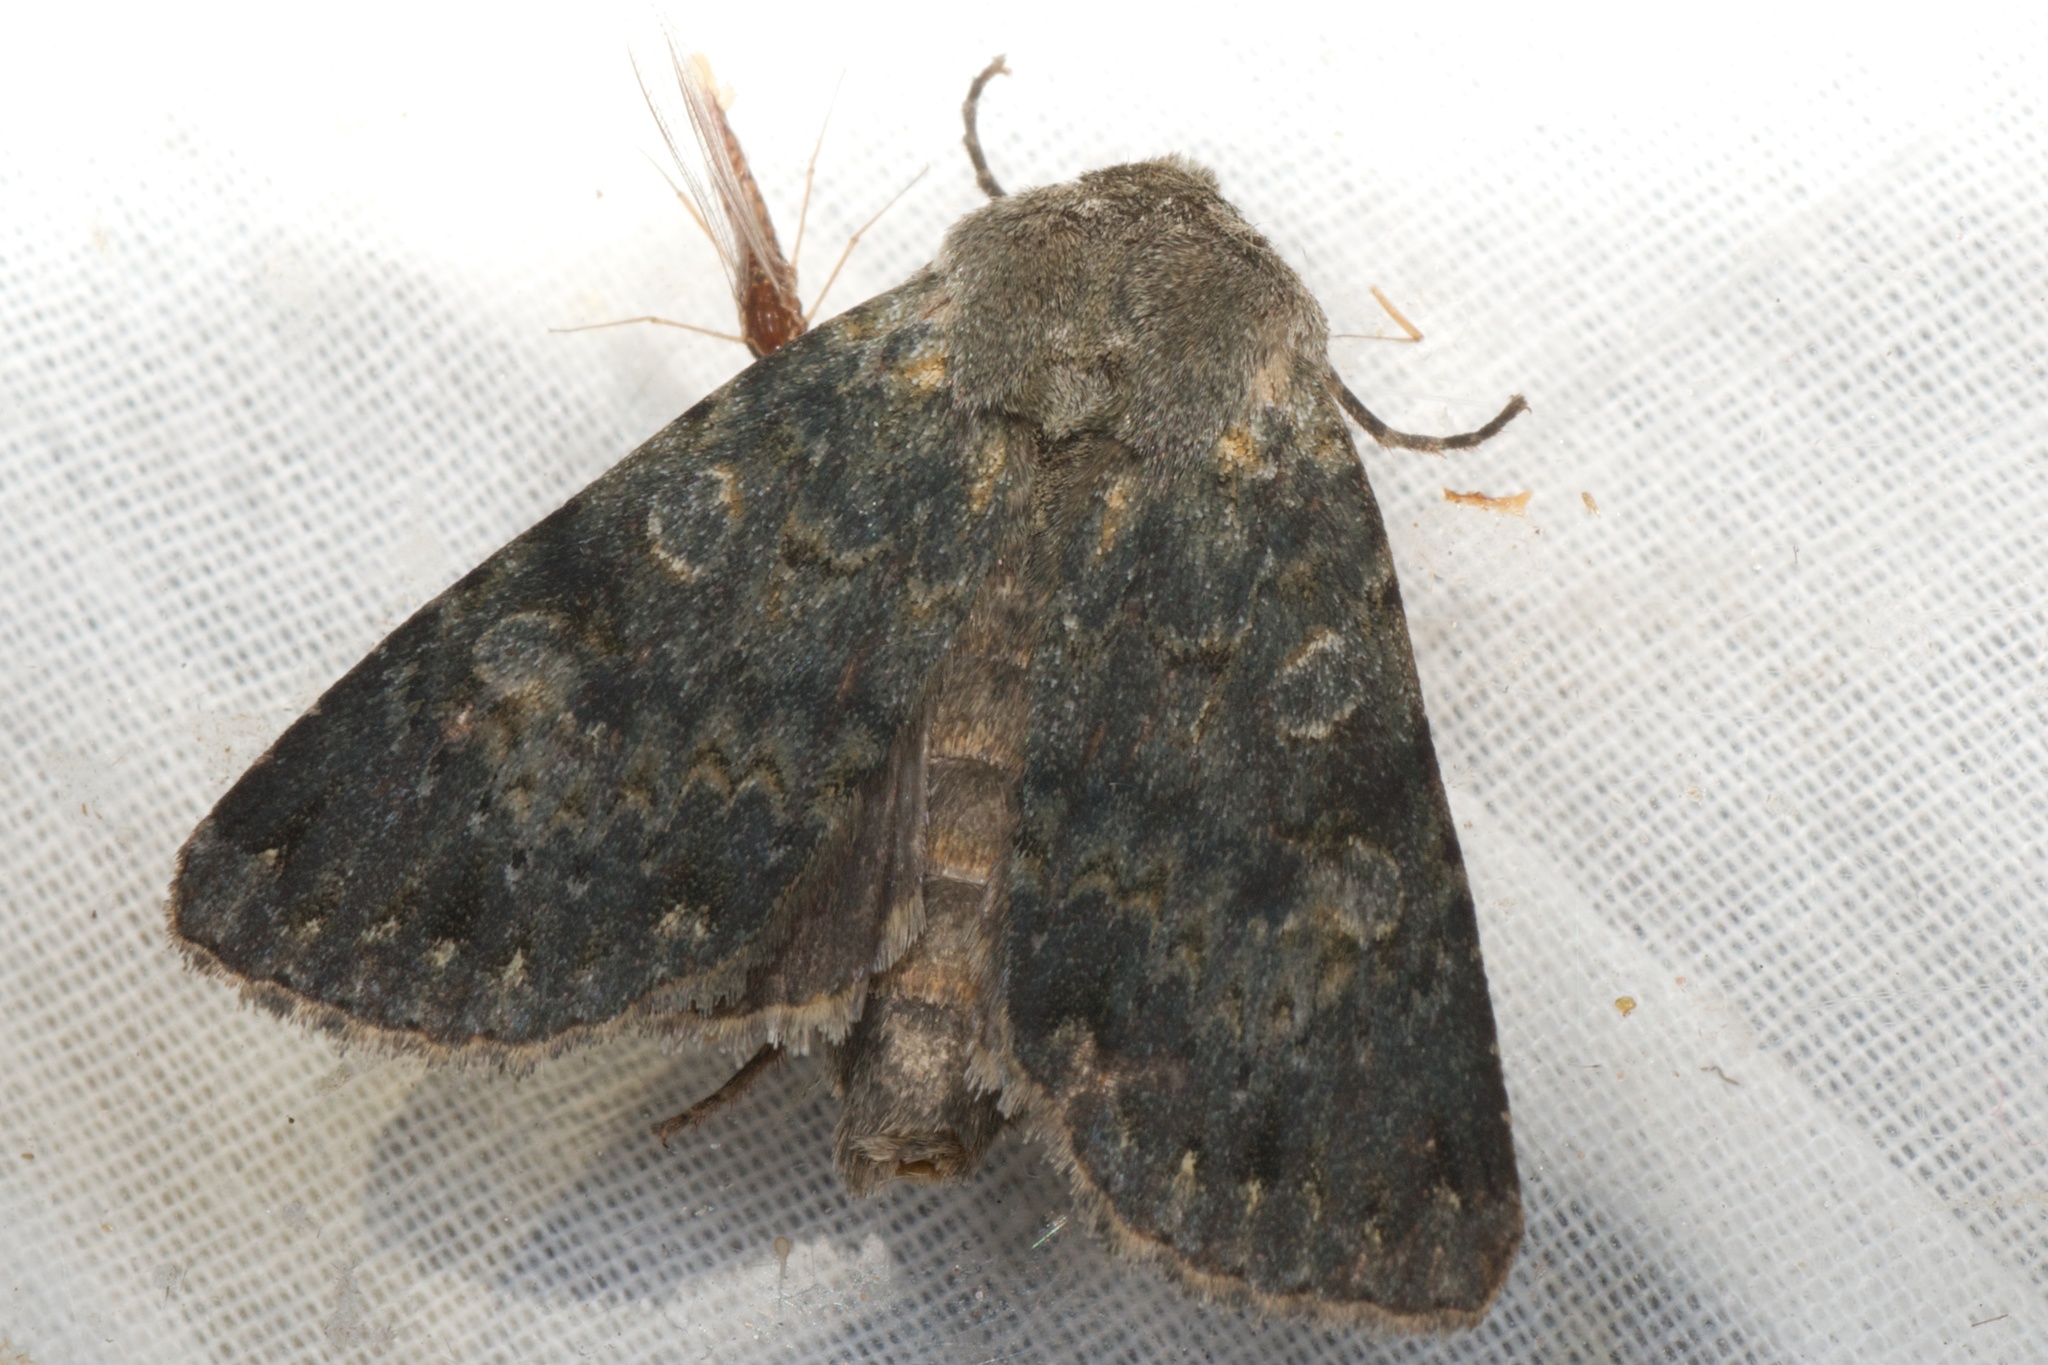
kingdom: Animalia
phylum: Arthropoda
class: Insecta
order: Lepidoptera
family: Noctuidae
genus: Ichneutica
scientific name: Ichneutica
